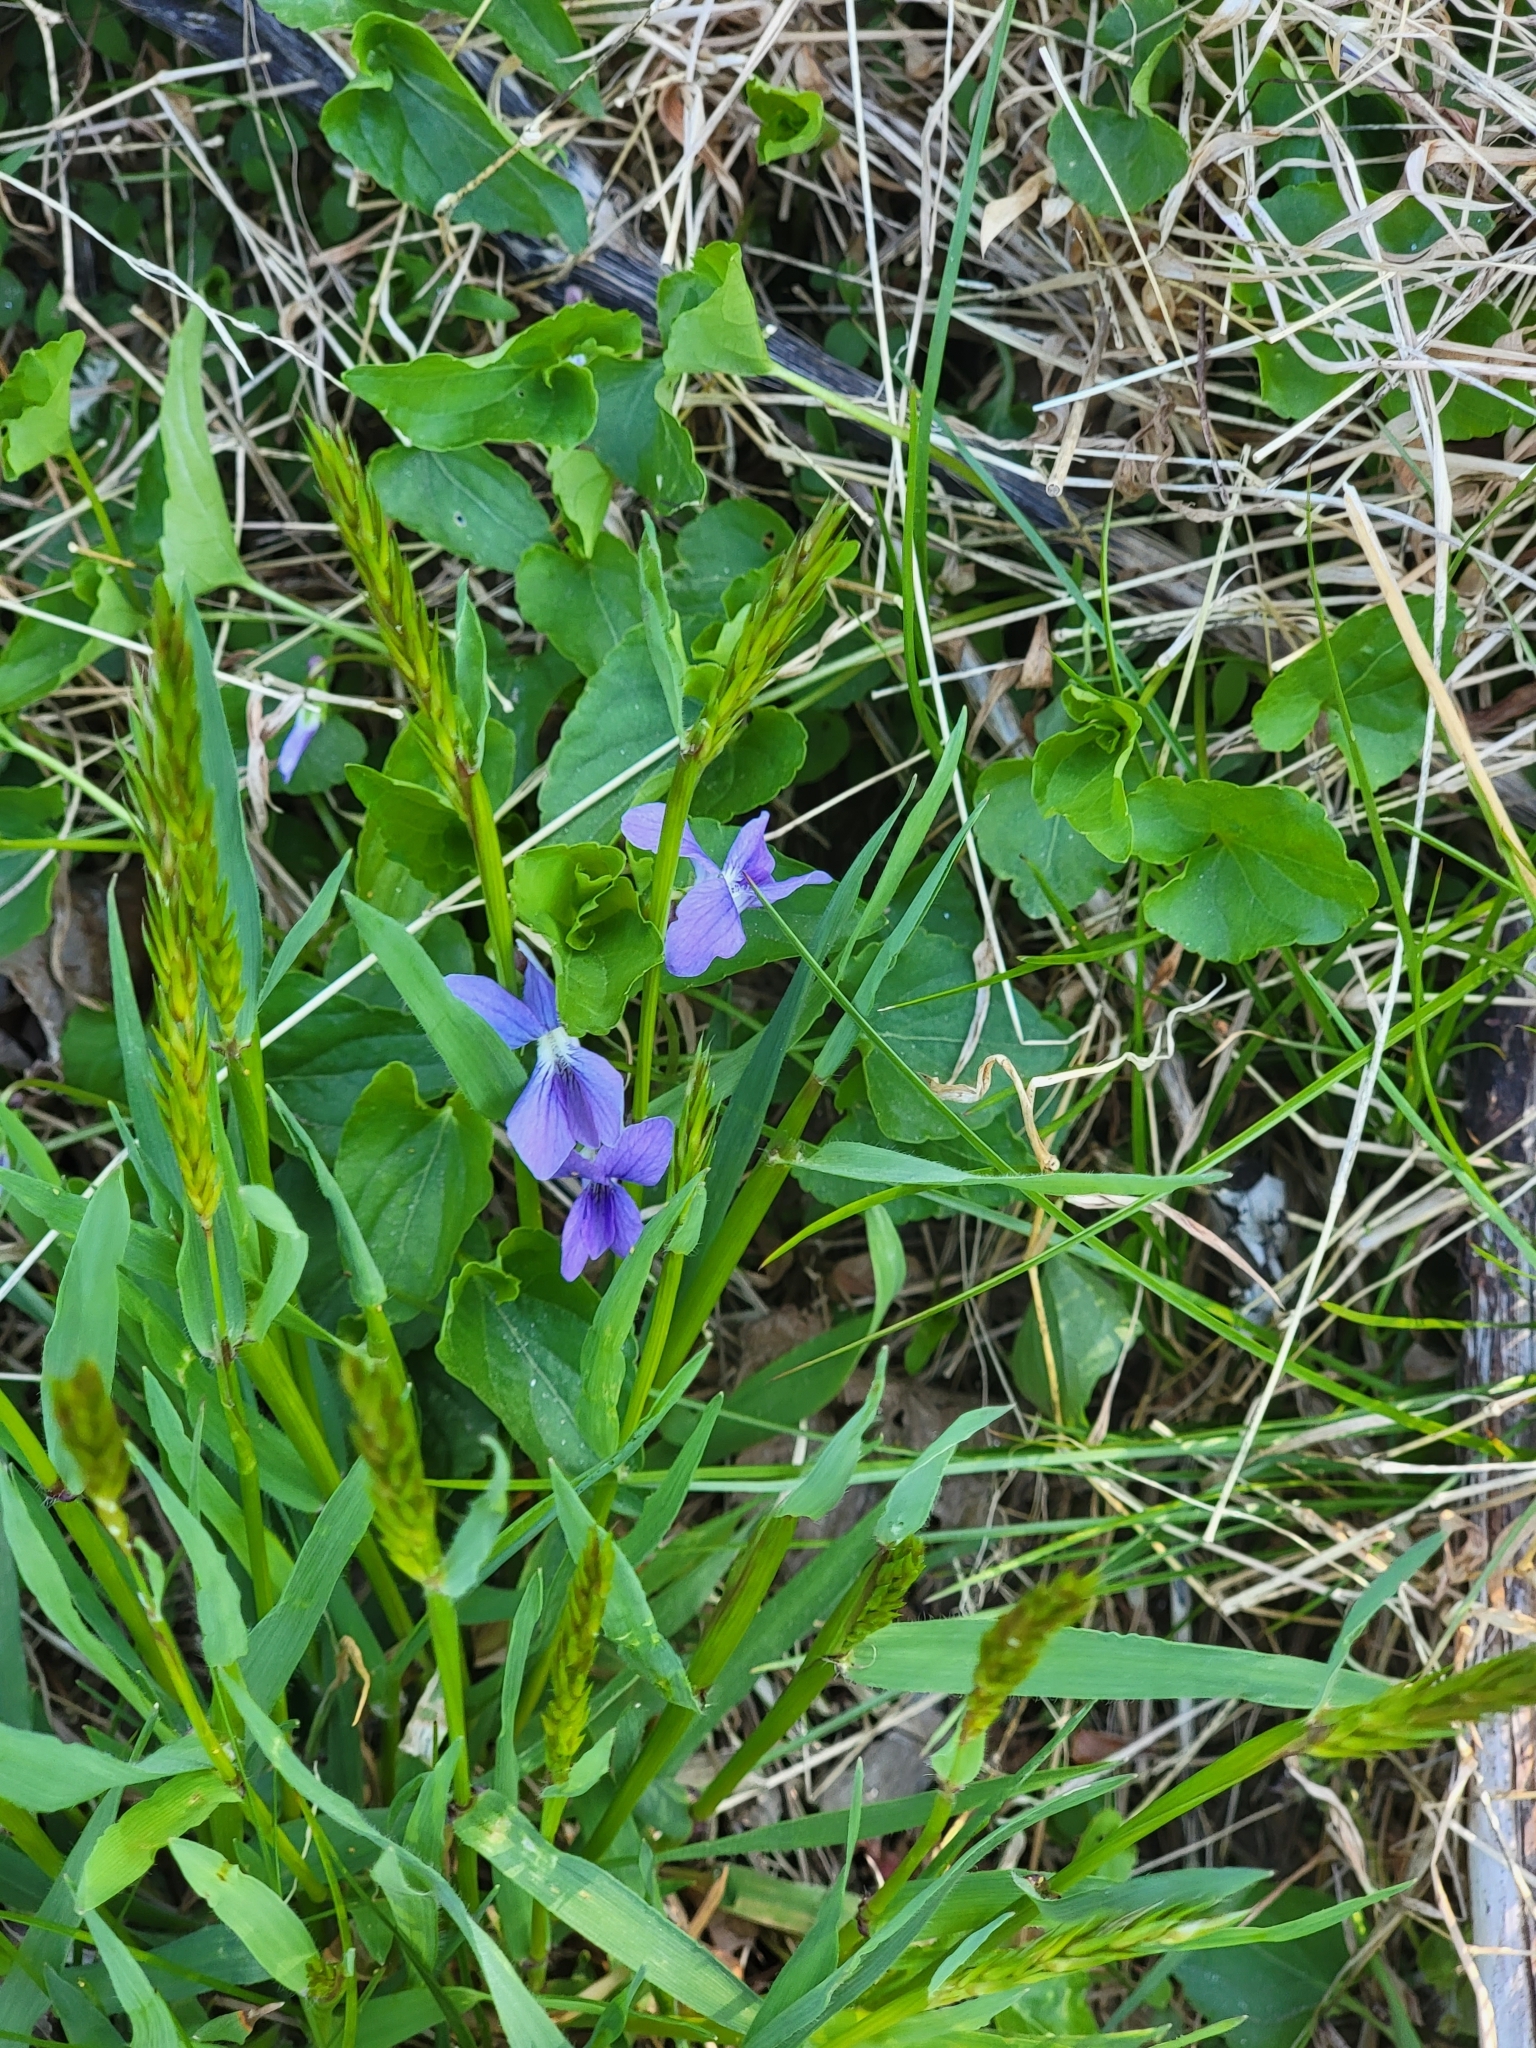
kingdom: Plantae
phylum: Tracheophyta
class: Magnoliopsida
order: Malpighiales
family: Violaceae
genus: Viola
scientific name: Viola sororia
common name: Dooryard violet
